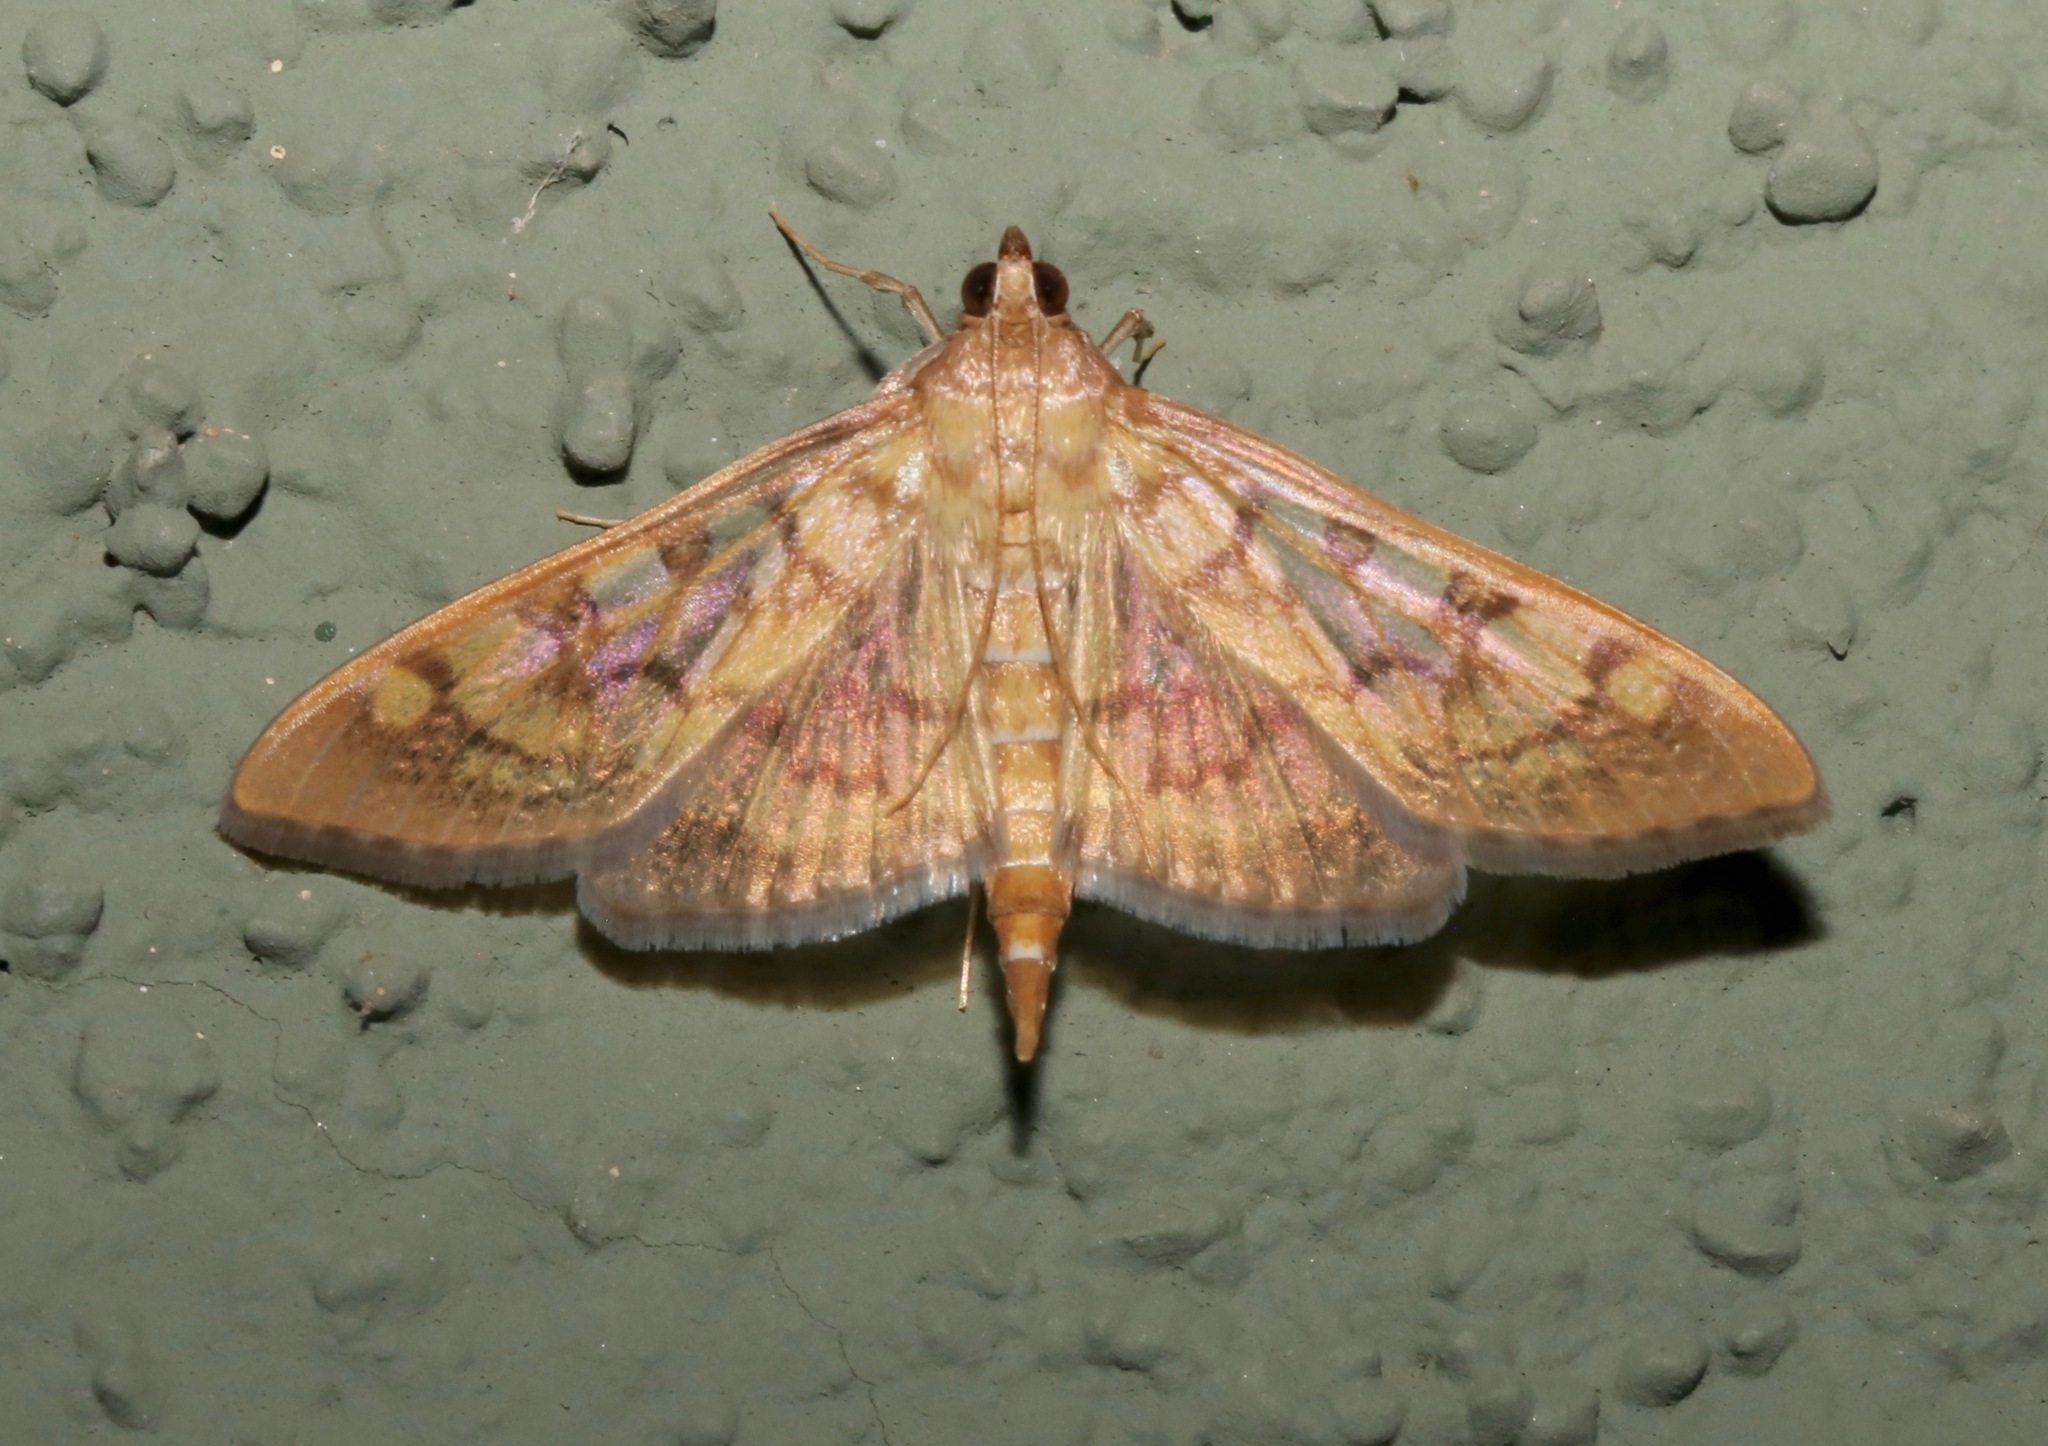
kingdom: Animalia
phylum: Arthropoda
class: Insecta
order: Lepidoptera
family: Crambidae
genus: Mimorista
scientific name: Mimorista subcostalis
